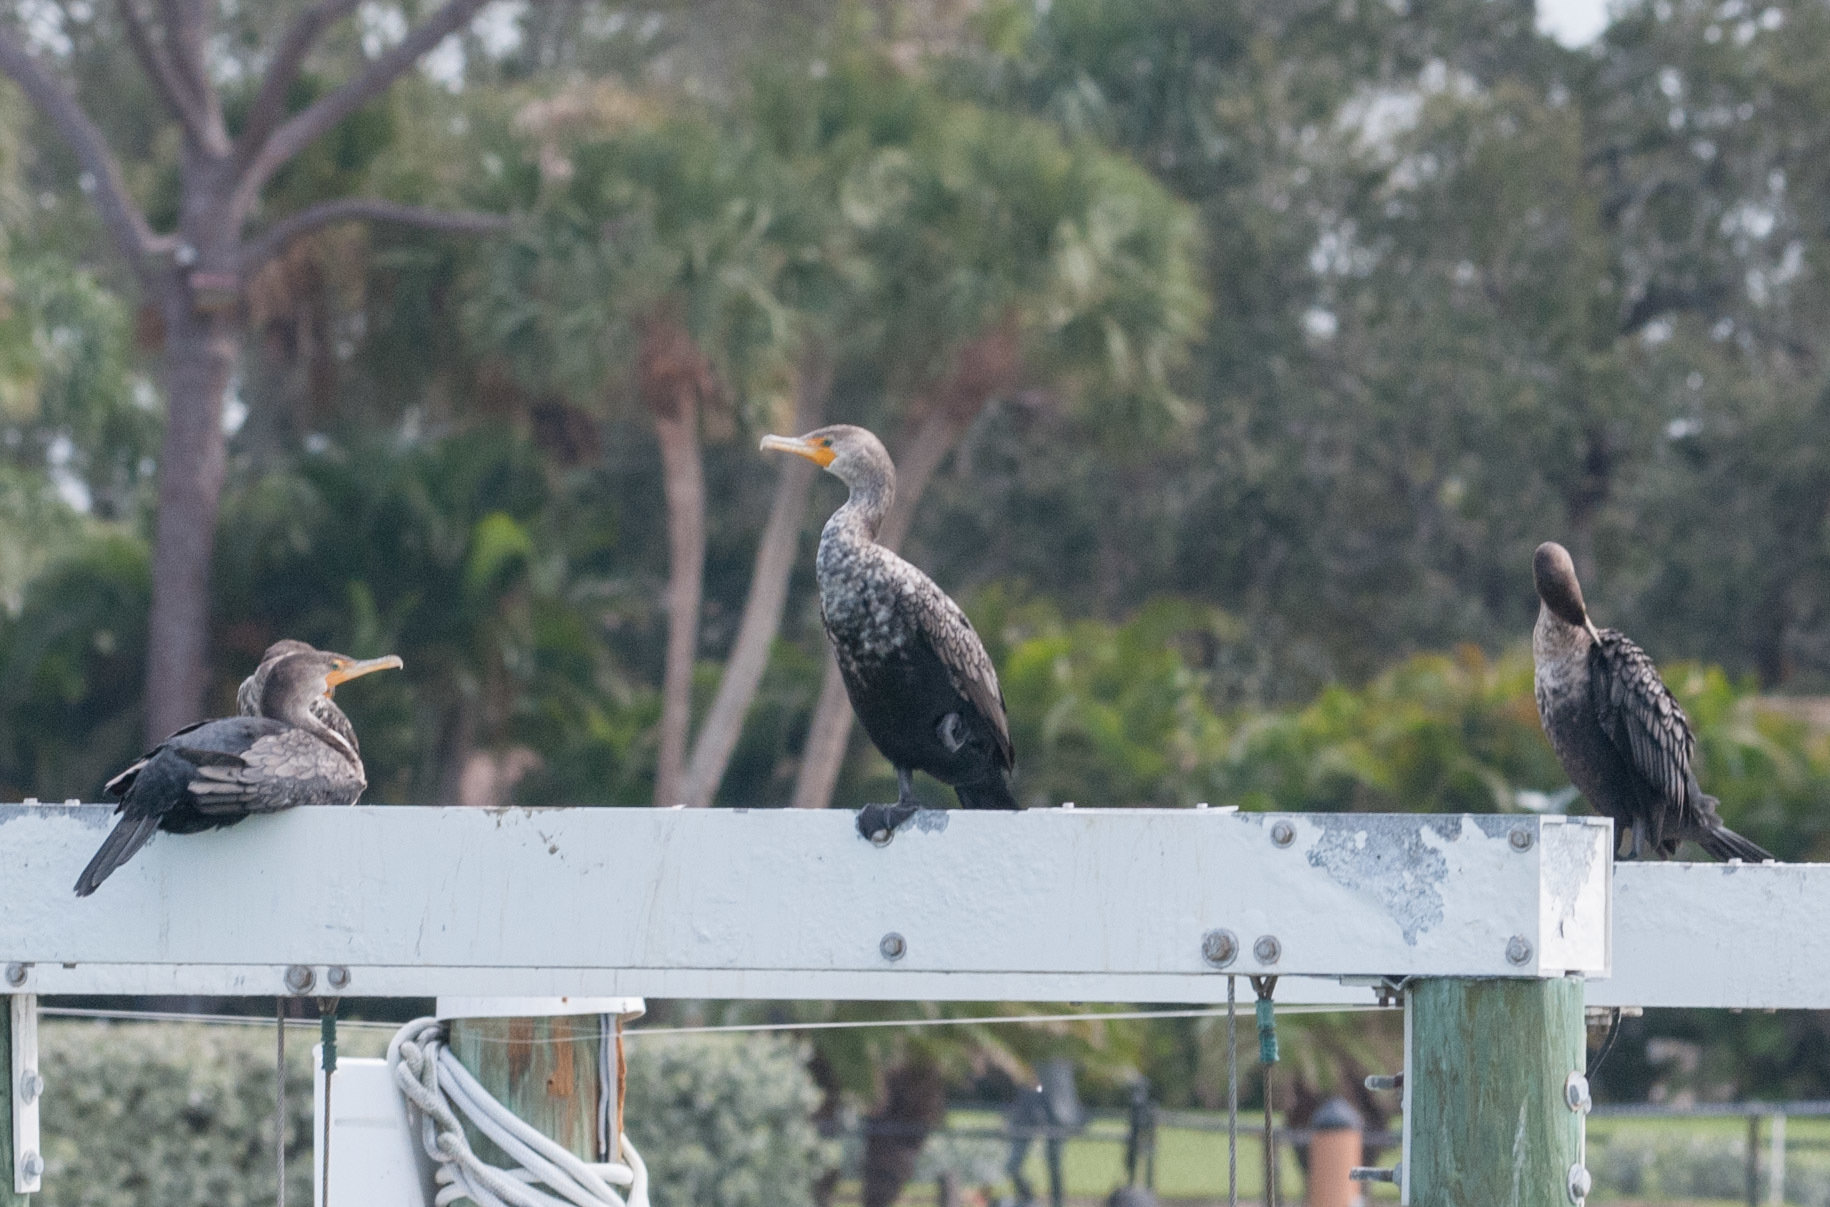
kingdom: Animalia
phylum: Chordata
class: Aves
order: Suliformes
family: Phalacrocoracidae
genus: Phalacrocorax
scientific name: Phalacrocorax auritus
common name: Double-crested cormorant
